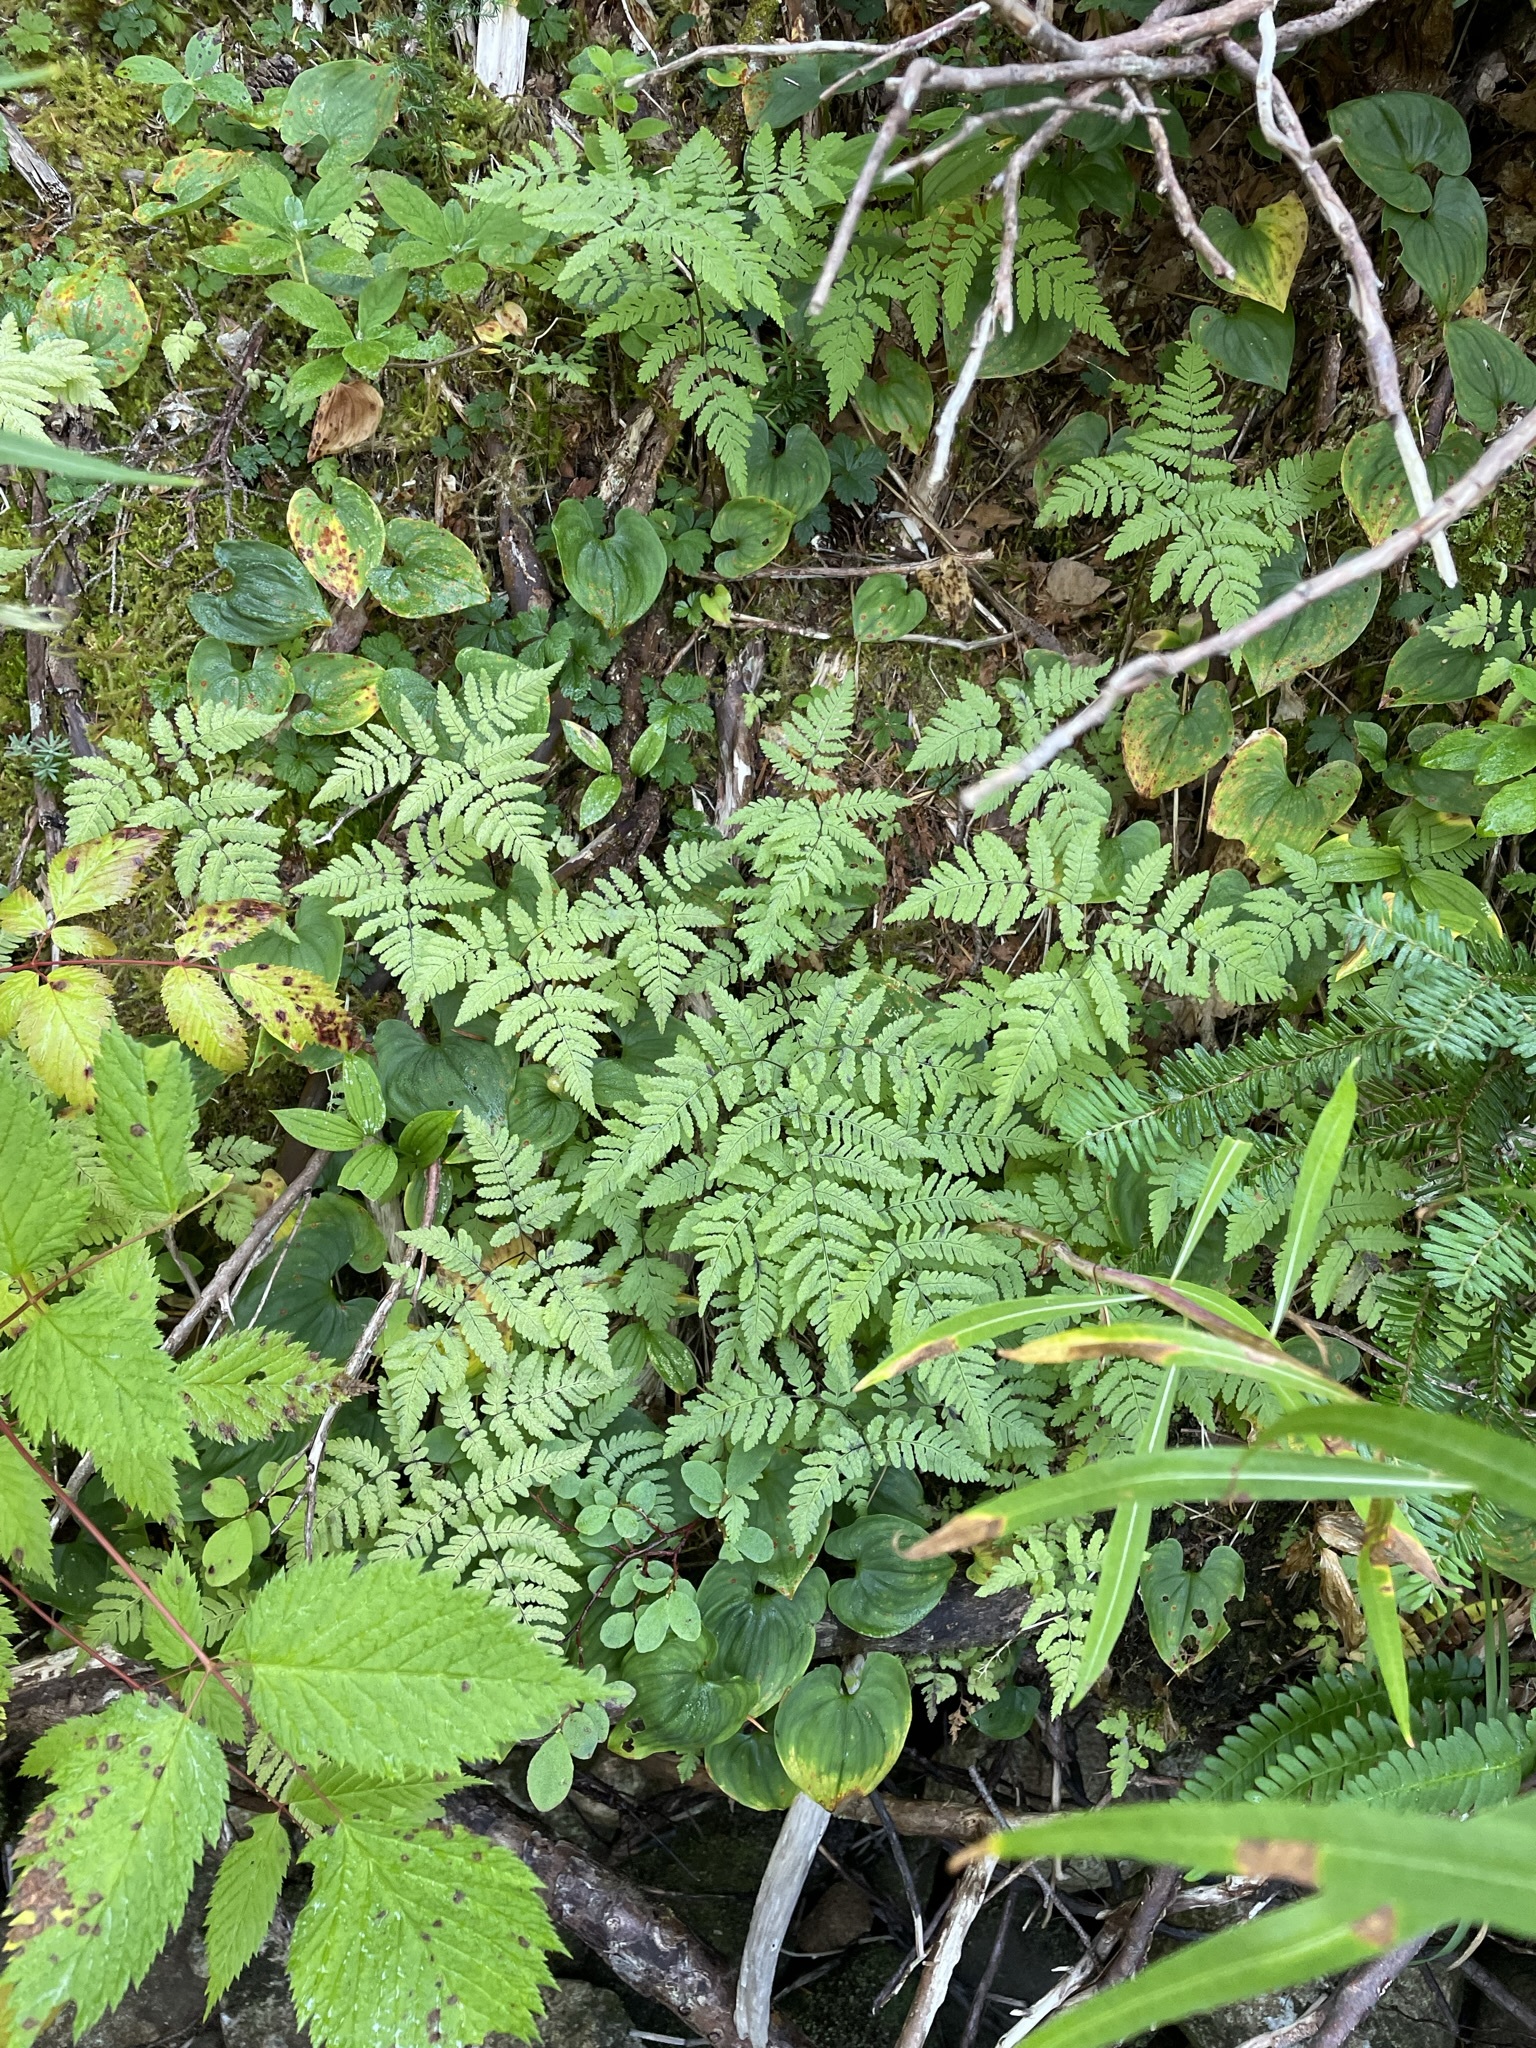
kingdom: Plantae
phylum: Tracheophyta
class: Polypodiopsida
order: Polypodiales
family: Cystopteridaceae
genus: Gymnocarpium
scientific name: Gymnocarpium disjunctum
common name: Western oak fern
